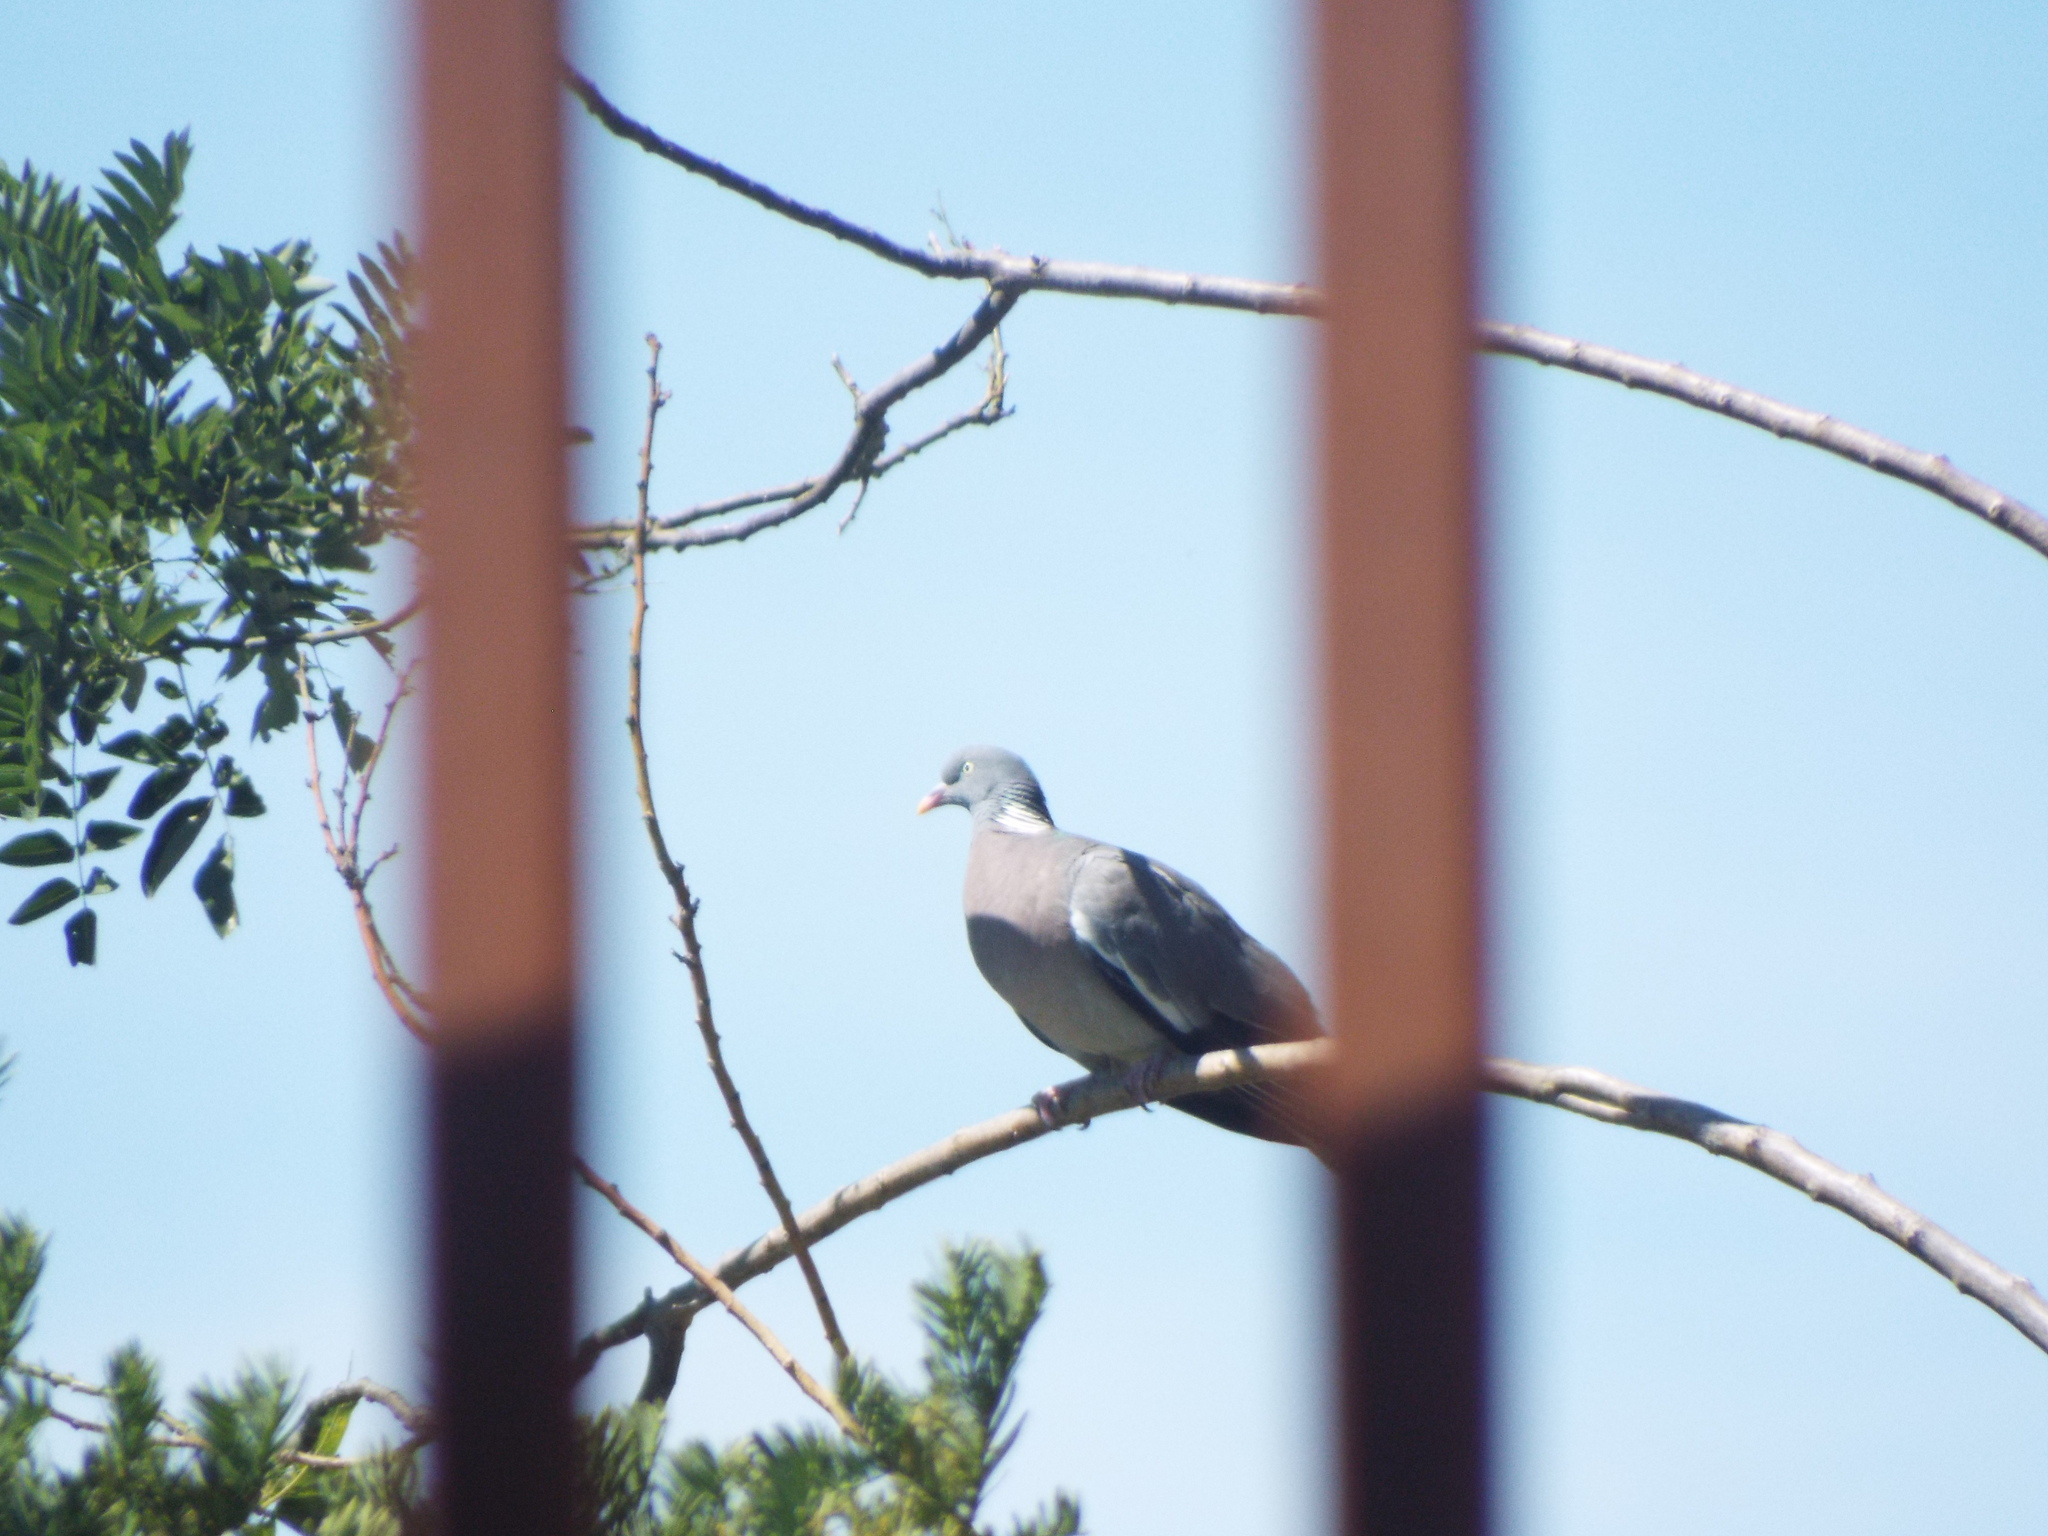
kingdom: Animalia
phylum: Chordata
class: Aves
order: Columbiformes
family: Columbidae
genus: Columba
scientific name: Columba palumbus
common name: Common wood pigeon
